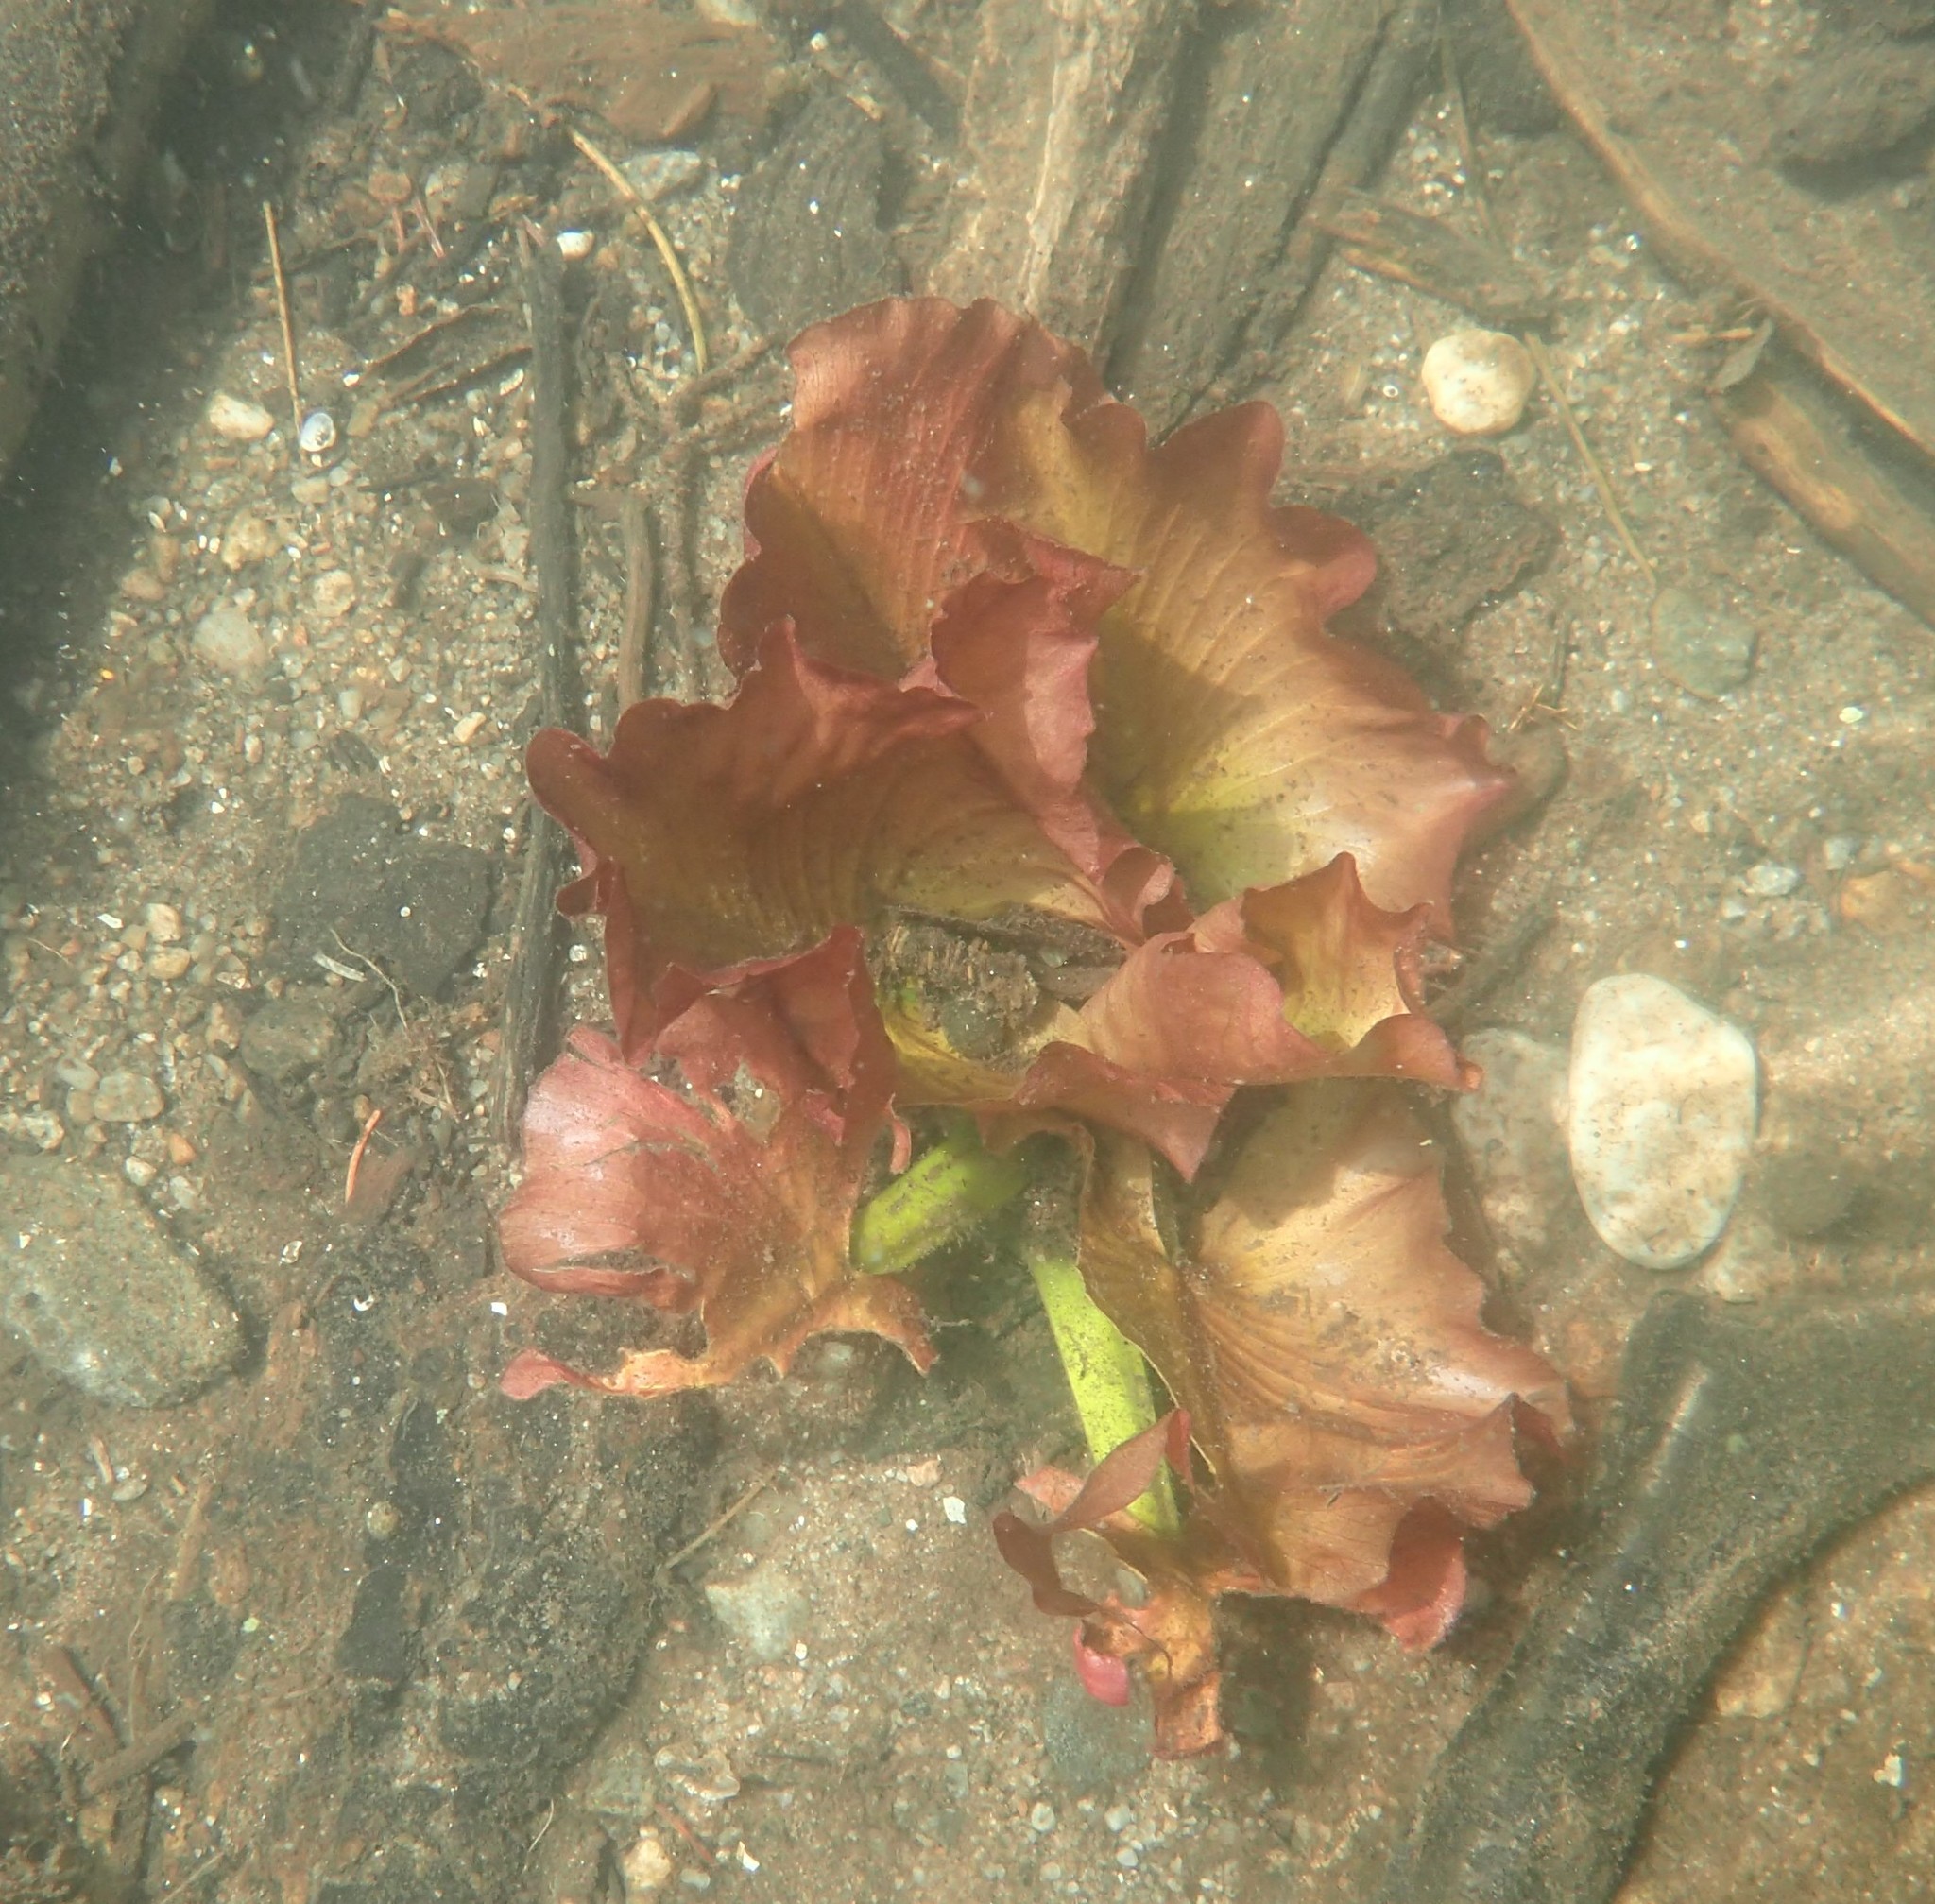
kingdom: Plantae
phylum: Tracheophyta
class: Magnoliopsida
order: Nymphaeales
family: Nymphaeaceae
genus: Nuphar
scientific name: Nuphar variegata
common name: Beaver-root
